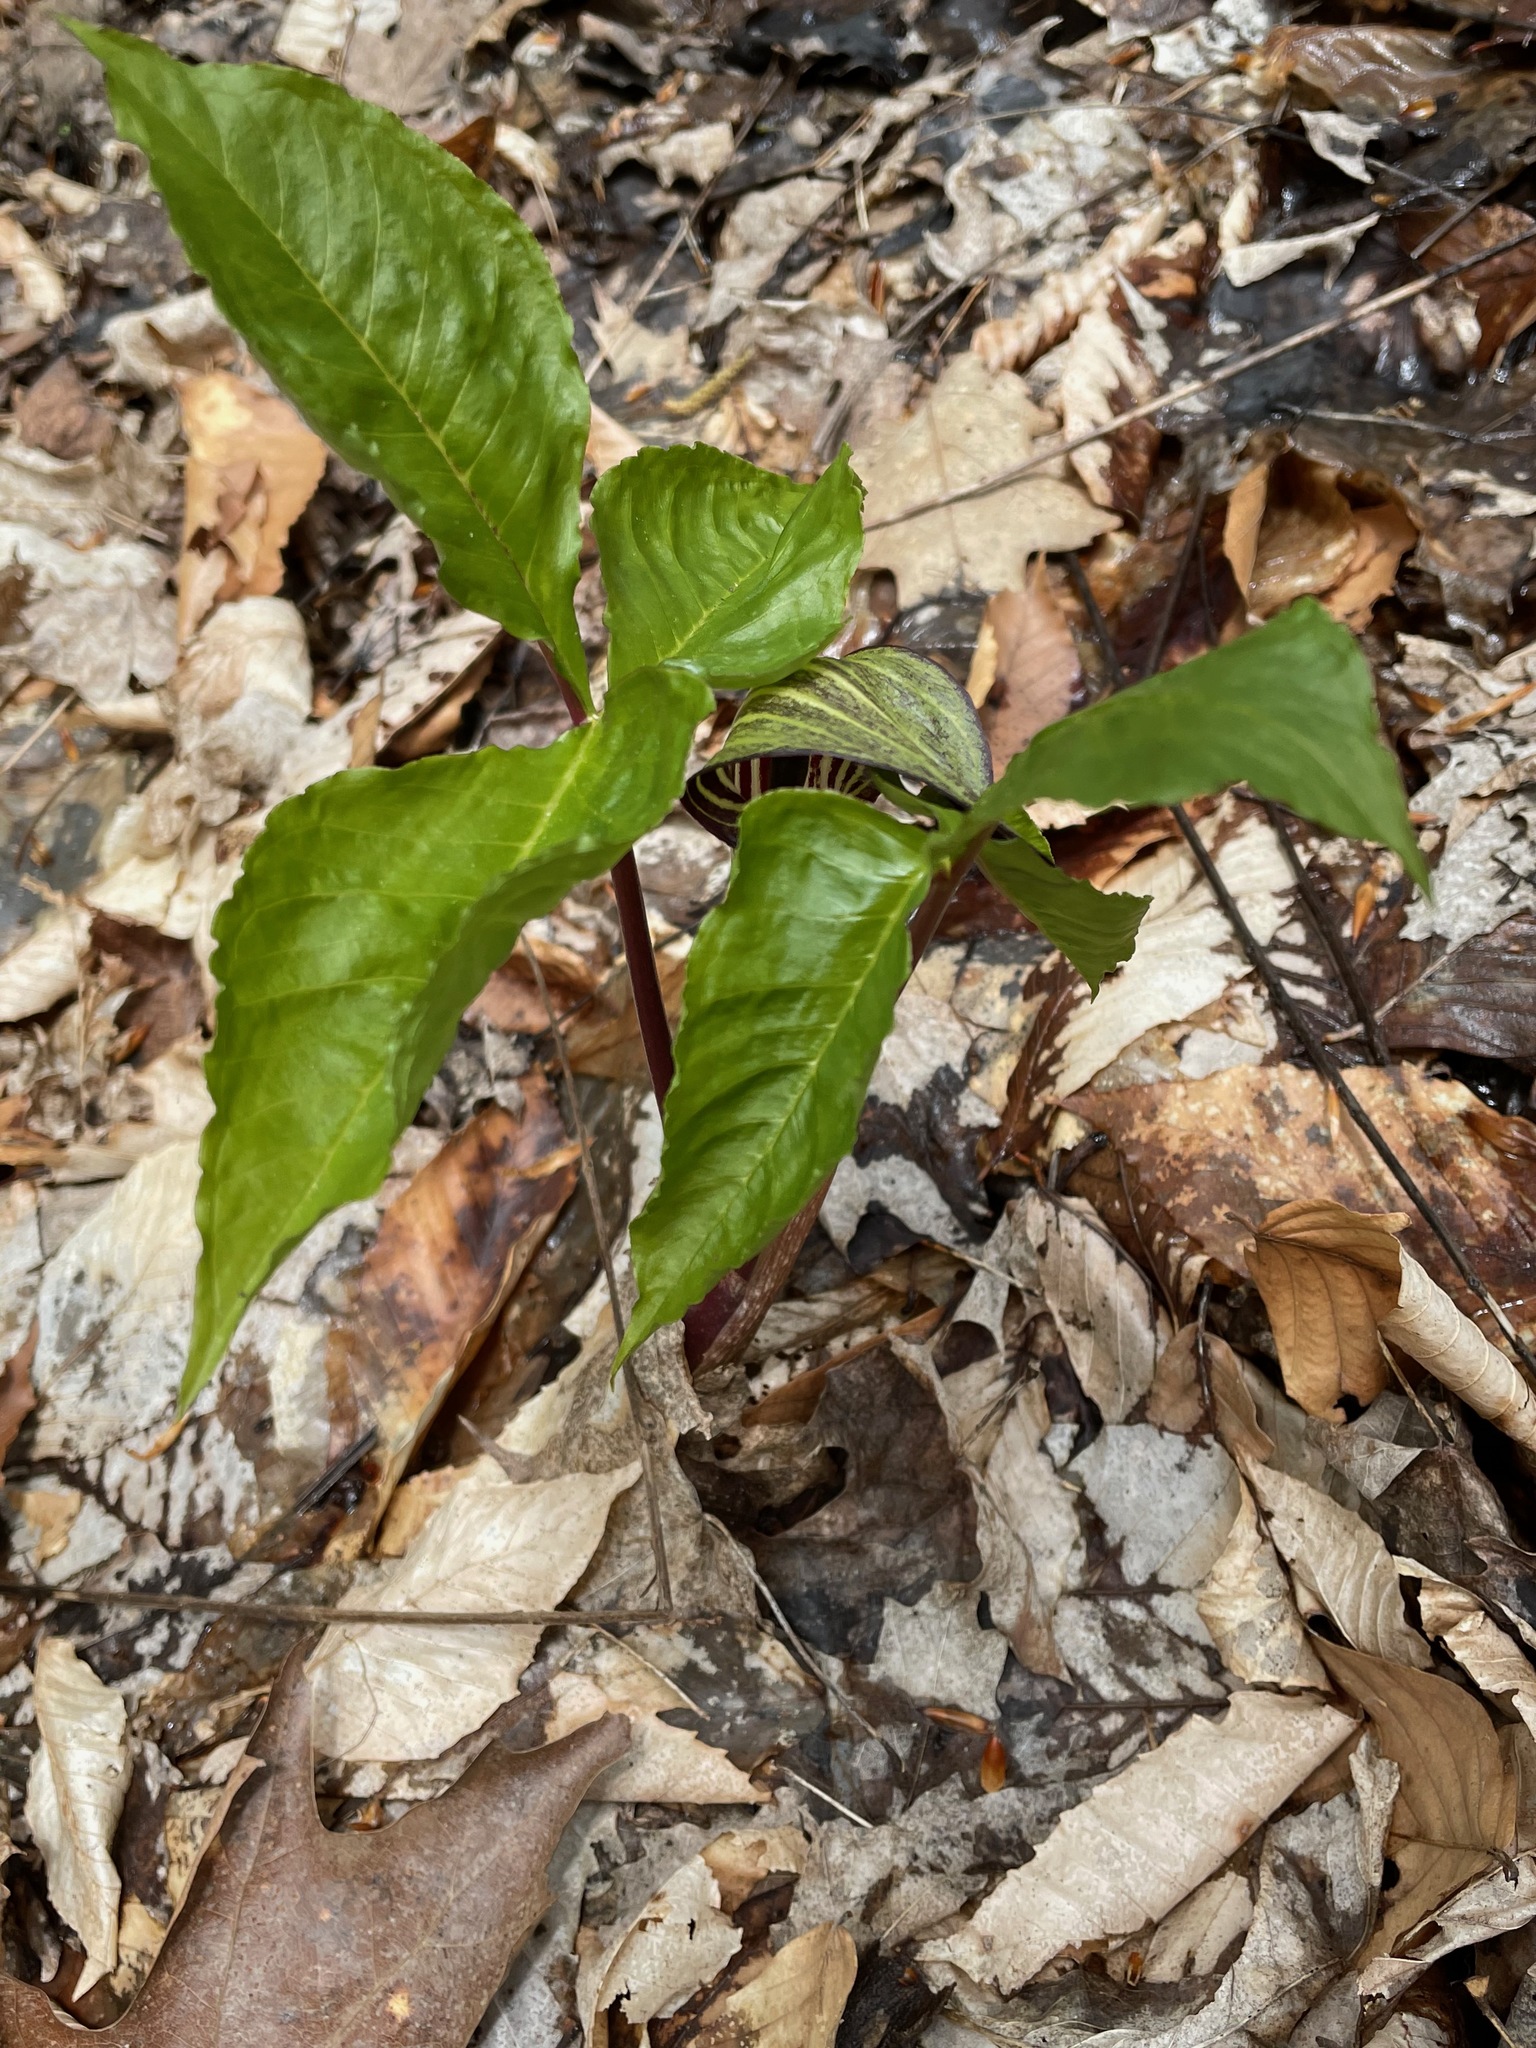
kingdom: Plantae
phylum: Tracheophyta
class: Liliopsida
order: Alismatales
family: Araceae
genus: Arisaema
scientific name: Arisaema triphyllum
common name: Jack-in-the-pulpit
